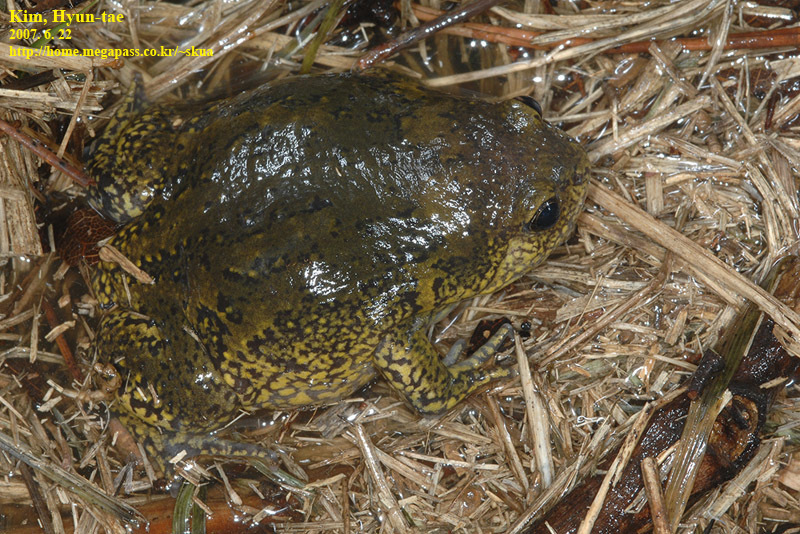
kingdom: Animalia
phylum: Chordata
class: Amphibia
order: Anura
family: Microhylidae
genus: Kaloula
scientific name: Kaloula borealis
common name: Boreal digging frog
